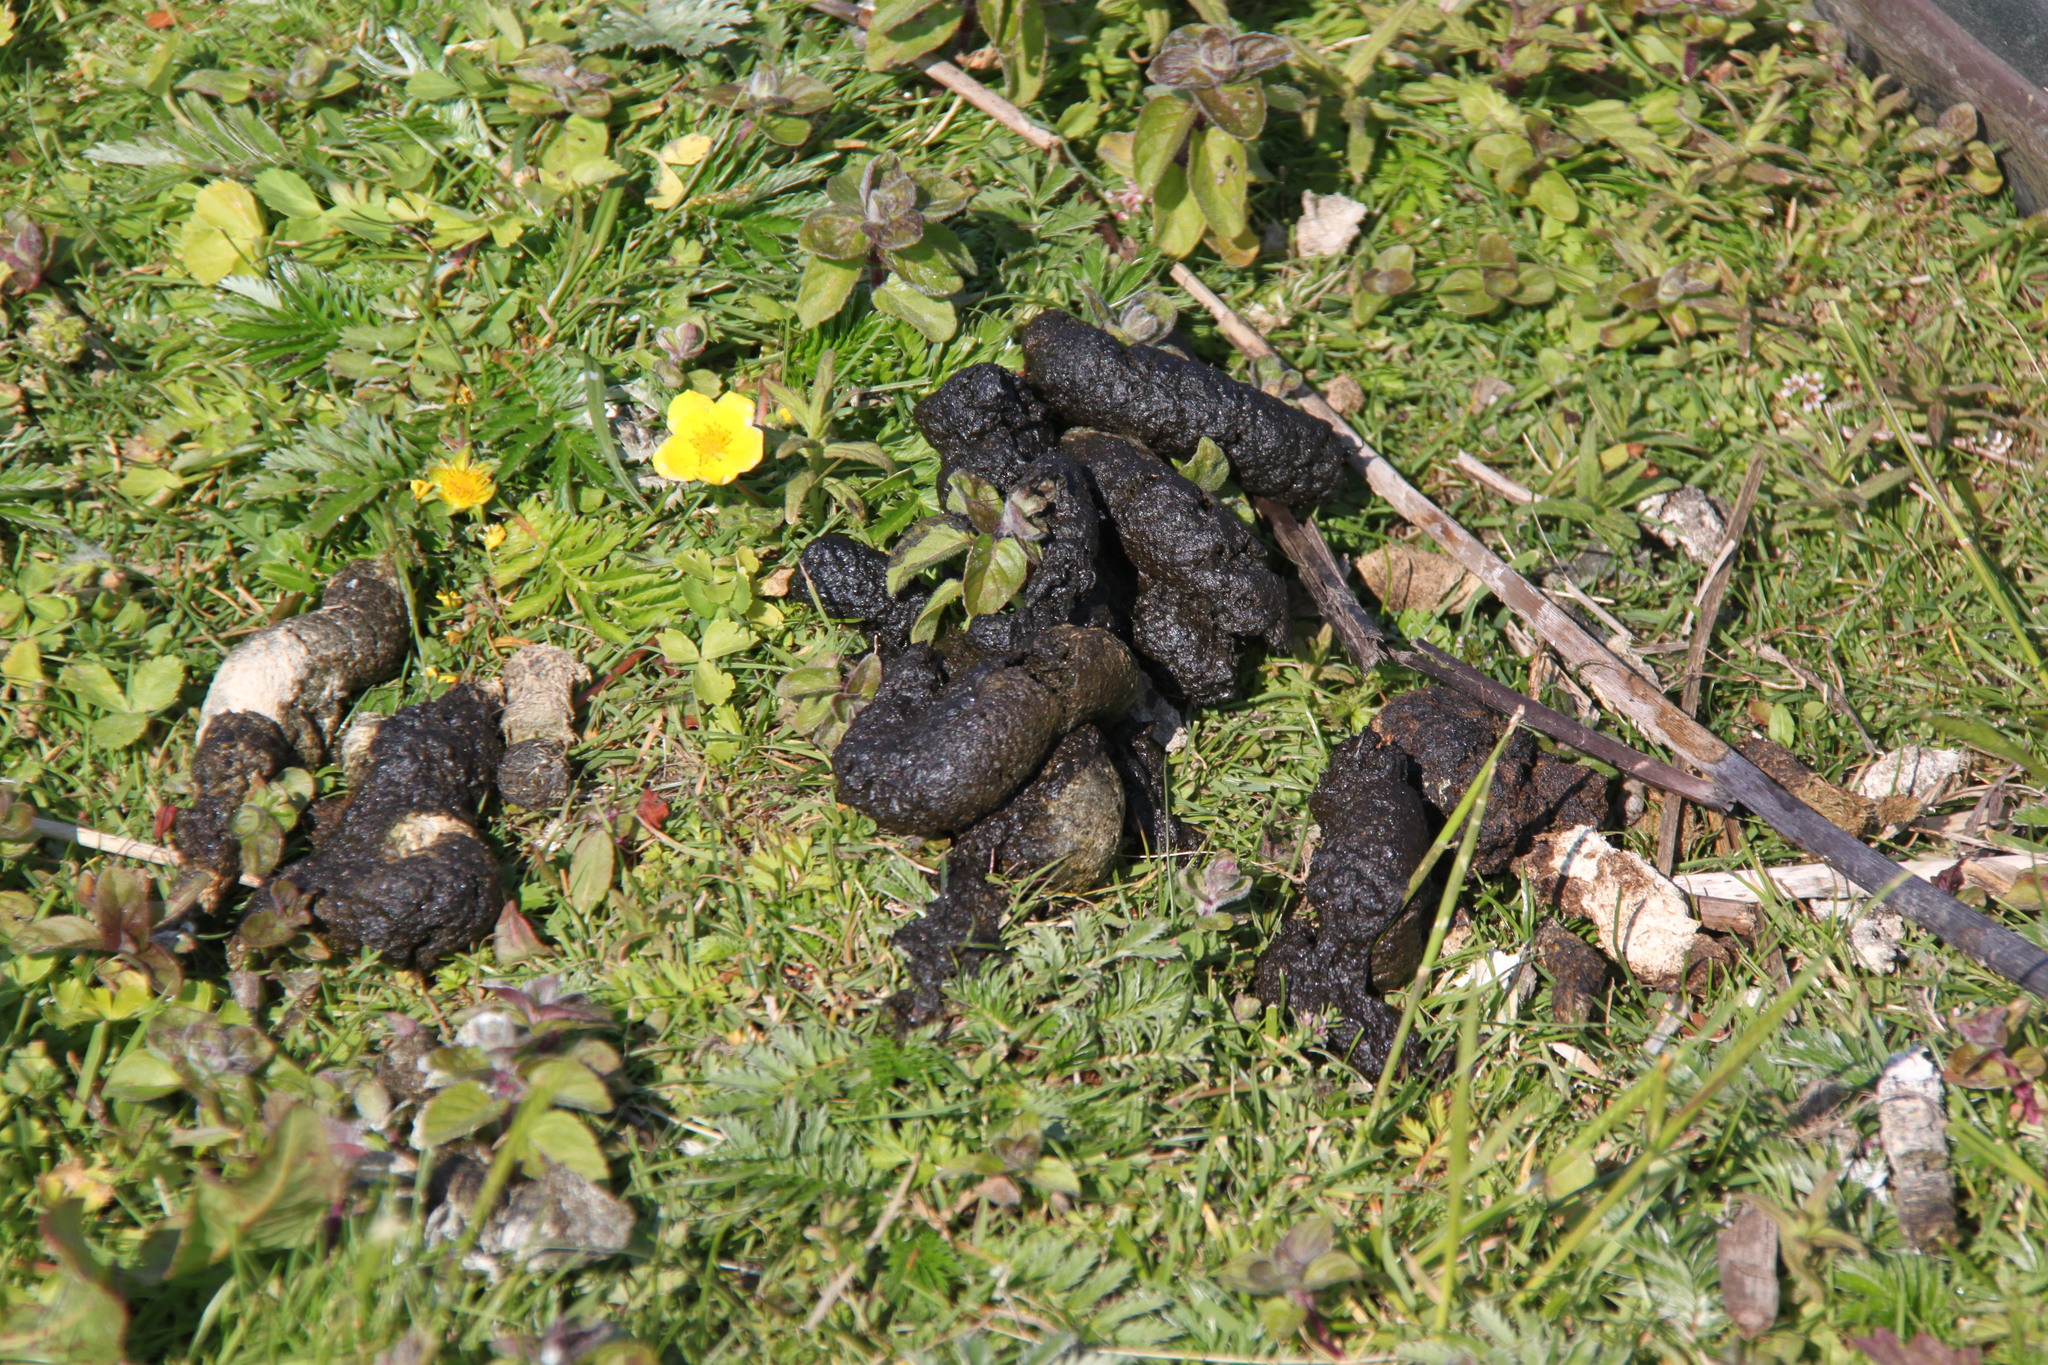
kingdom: Plantae
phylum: Tracheophyta
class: Magnoliopsida
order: Saxifragales
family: Crassulaceae
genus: Crassula
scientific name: Crassula helmsii
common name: New zealand pigmyweed
